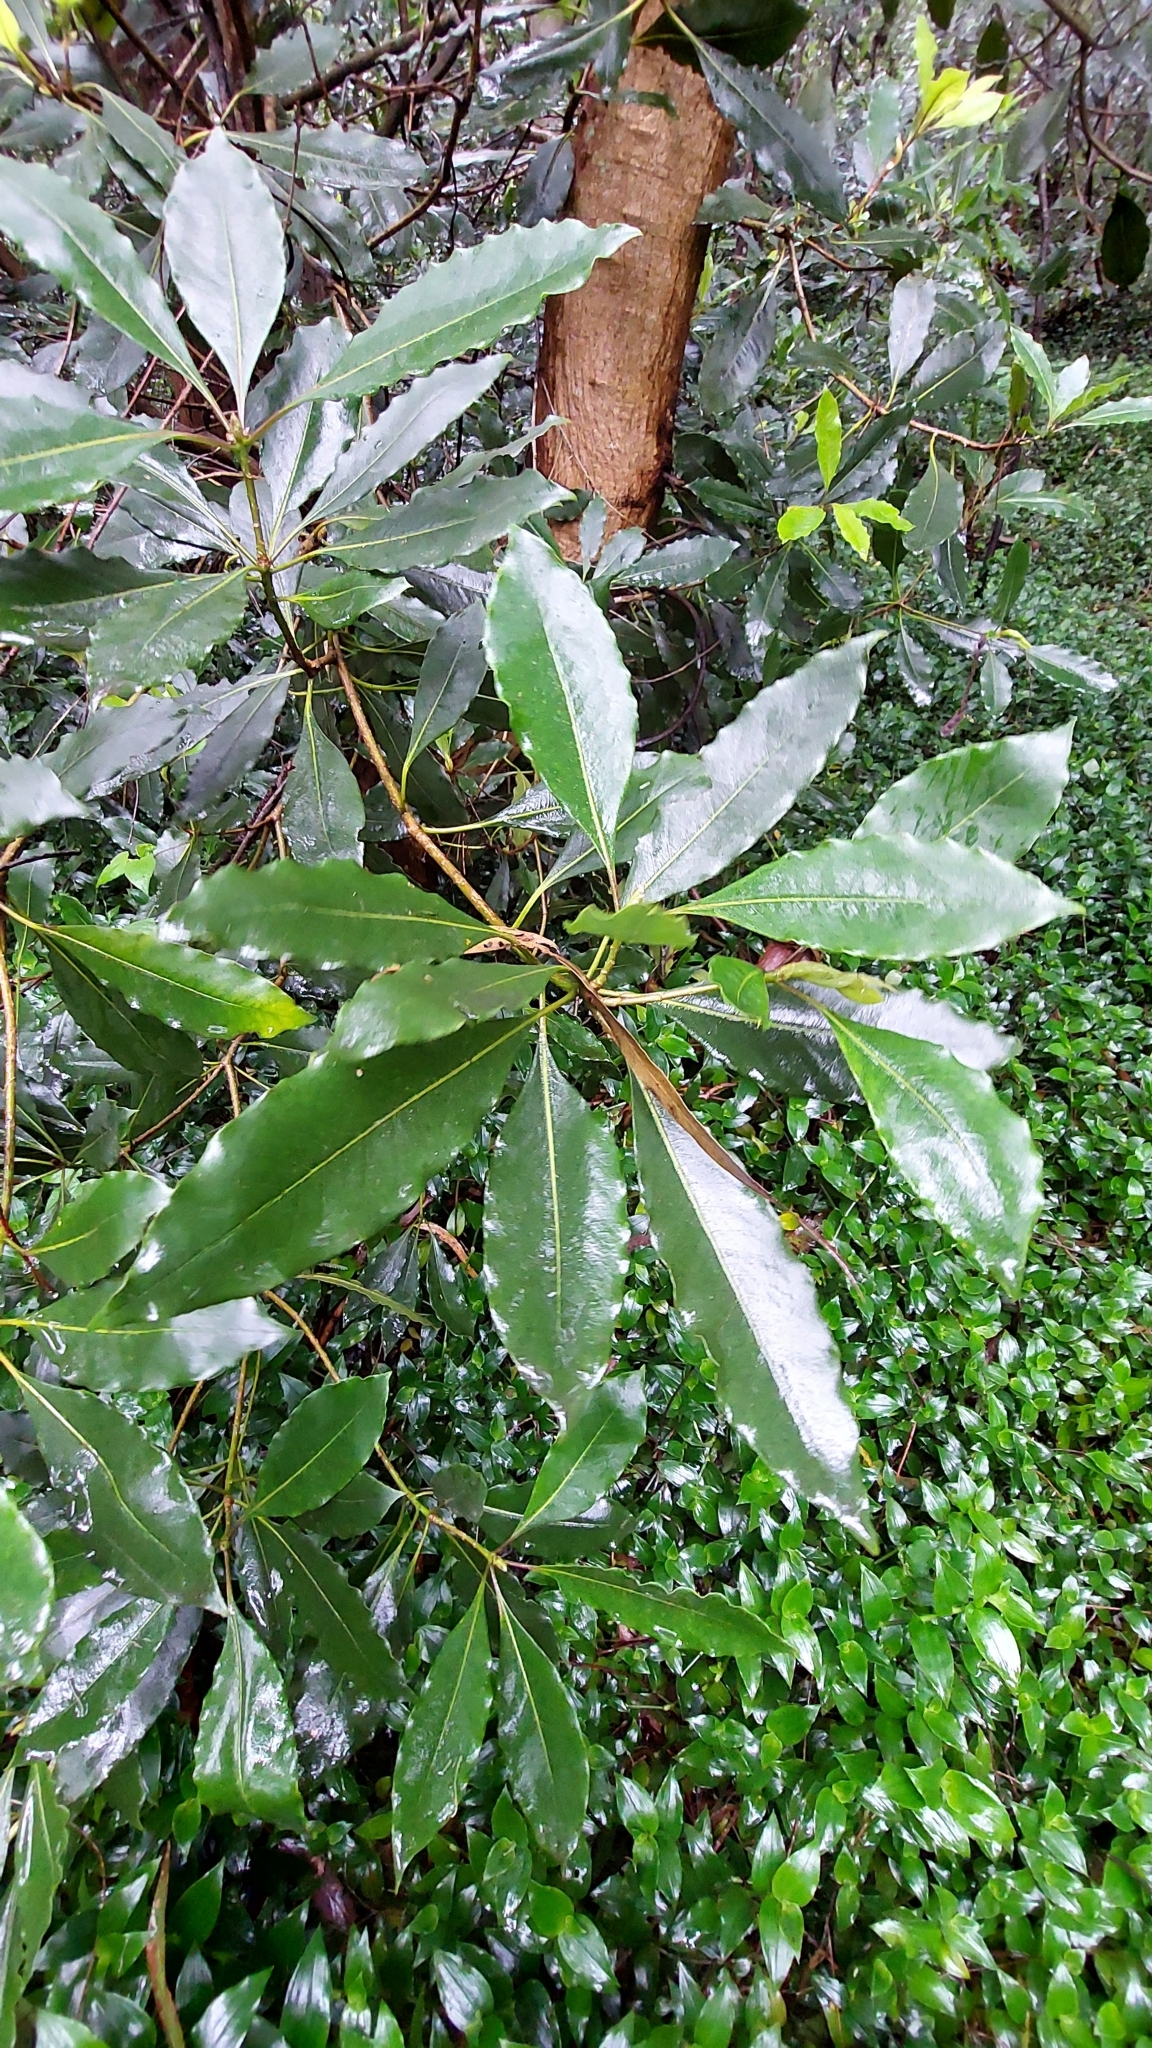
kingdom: Plantae
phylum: Tracheophyta
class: Magnoliopsida
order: Apiales
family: Pittosporaceae
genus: Pittosporum
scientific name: Pittosporum undulatum
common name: Australian cheesewood
